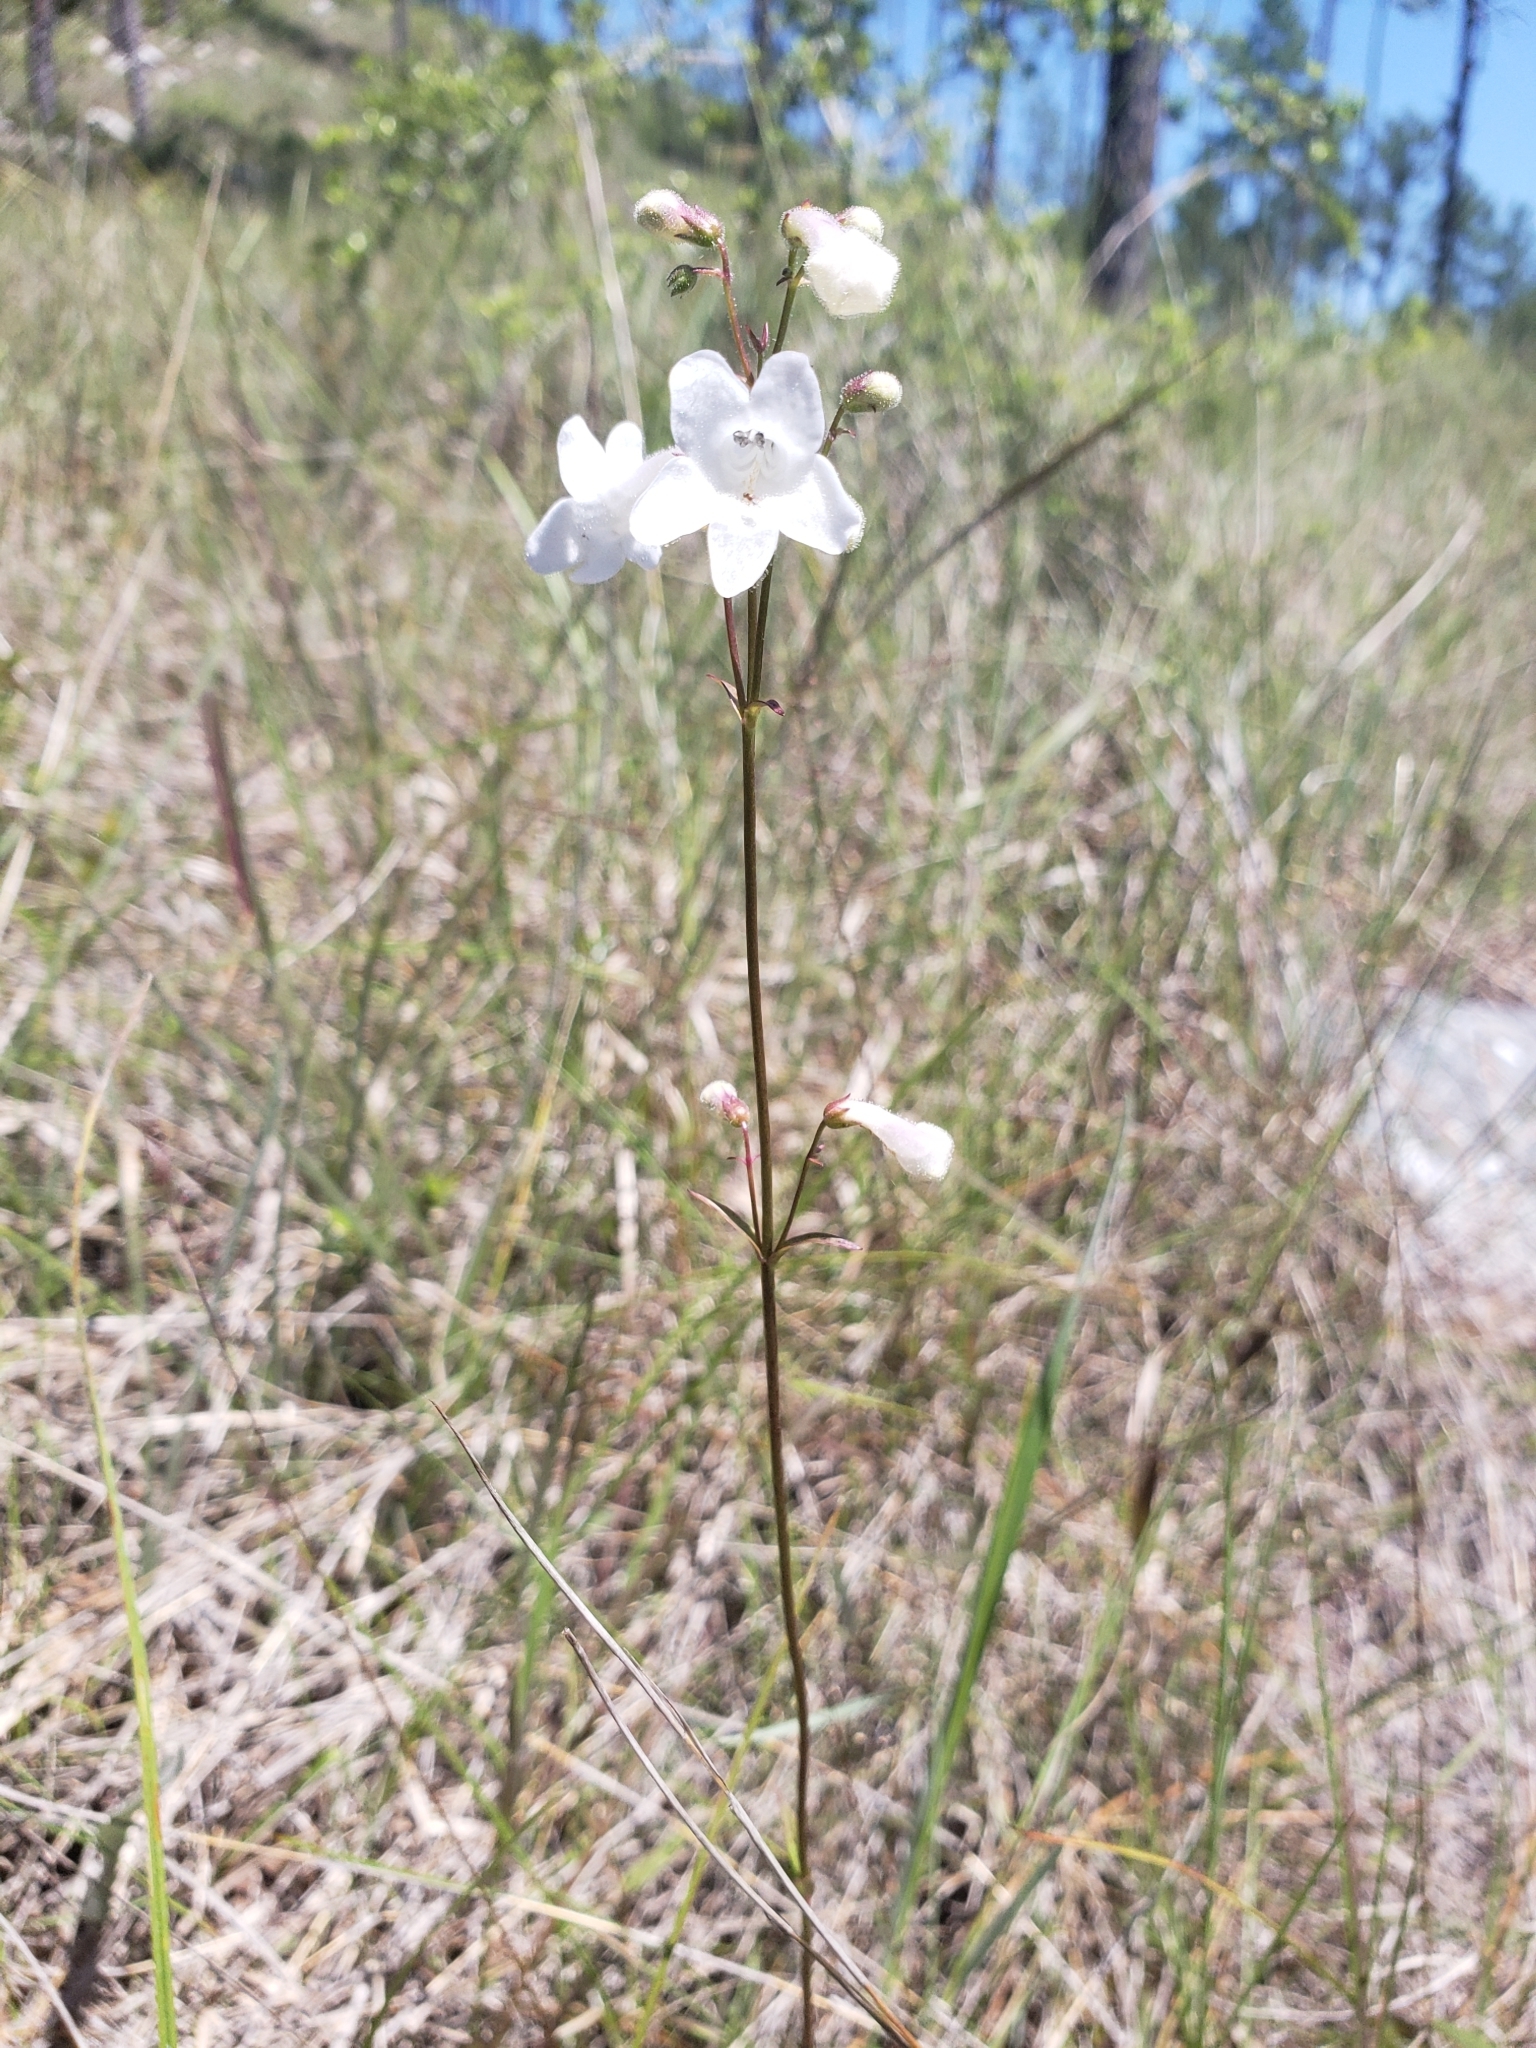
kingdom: Plantae
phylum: Tracheophyta
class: Magnoliopsida
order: Lamiales
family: Plantaginaceae
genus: Penstemon
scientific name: Penstemon digitalis
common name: Foxglove beardtongue
